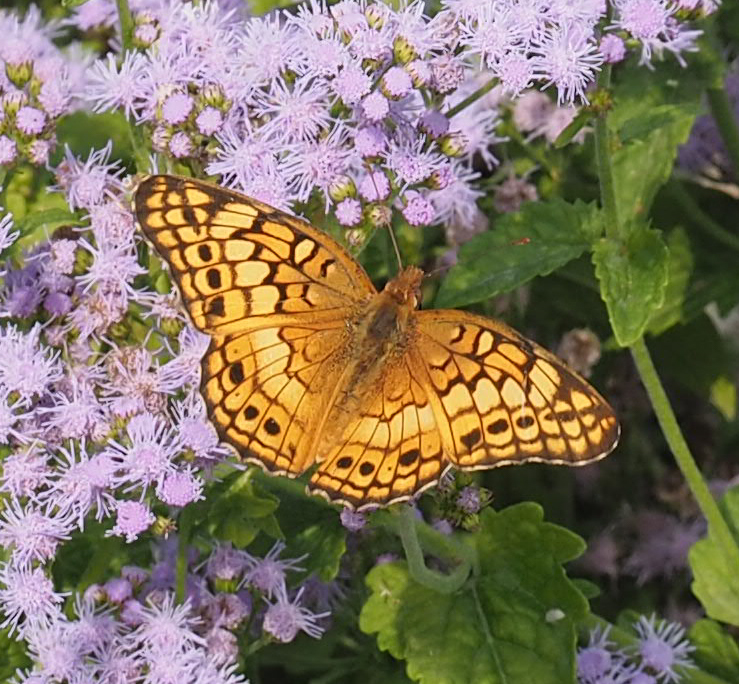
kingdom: Animalia
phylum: Arthropoda
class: Insecta
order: Lepidoptera
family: Nymphalidae
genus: Euptoieta
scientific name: Euptoieta claudia
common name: Variegated fritillary
